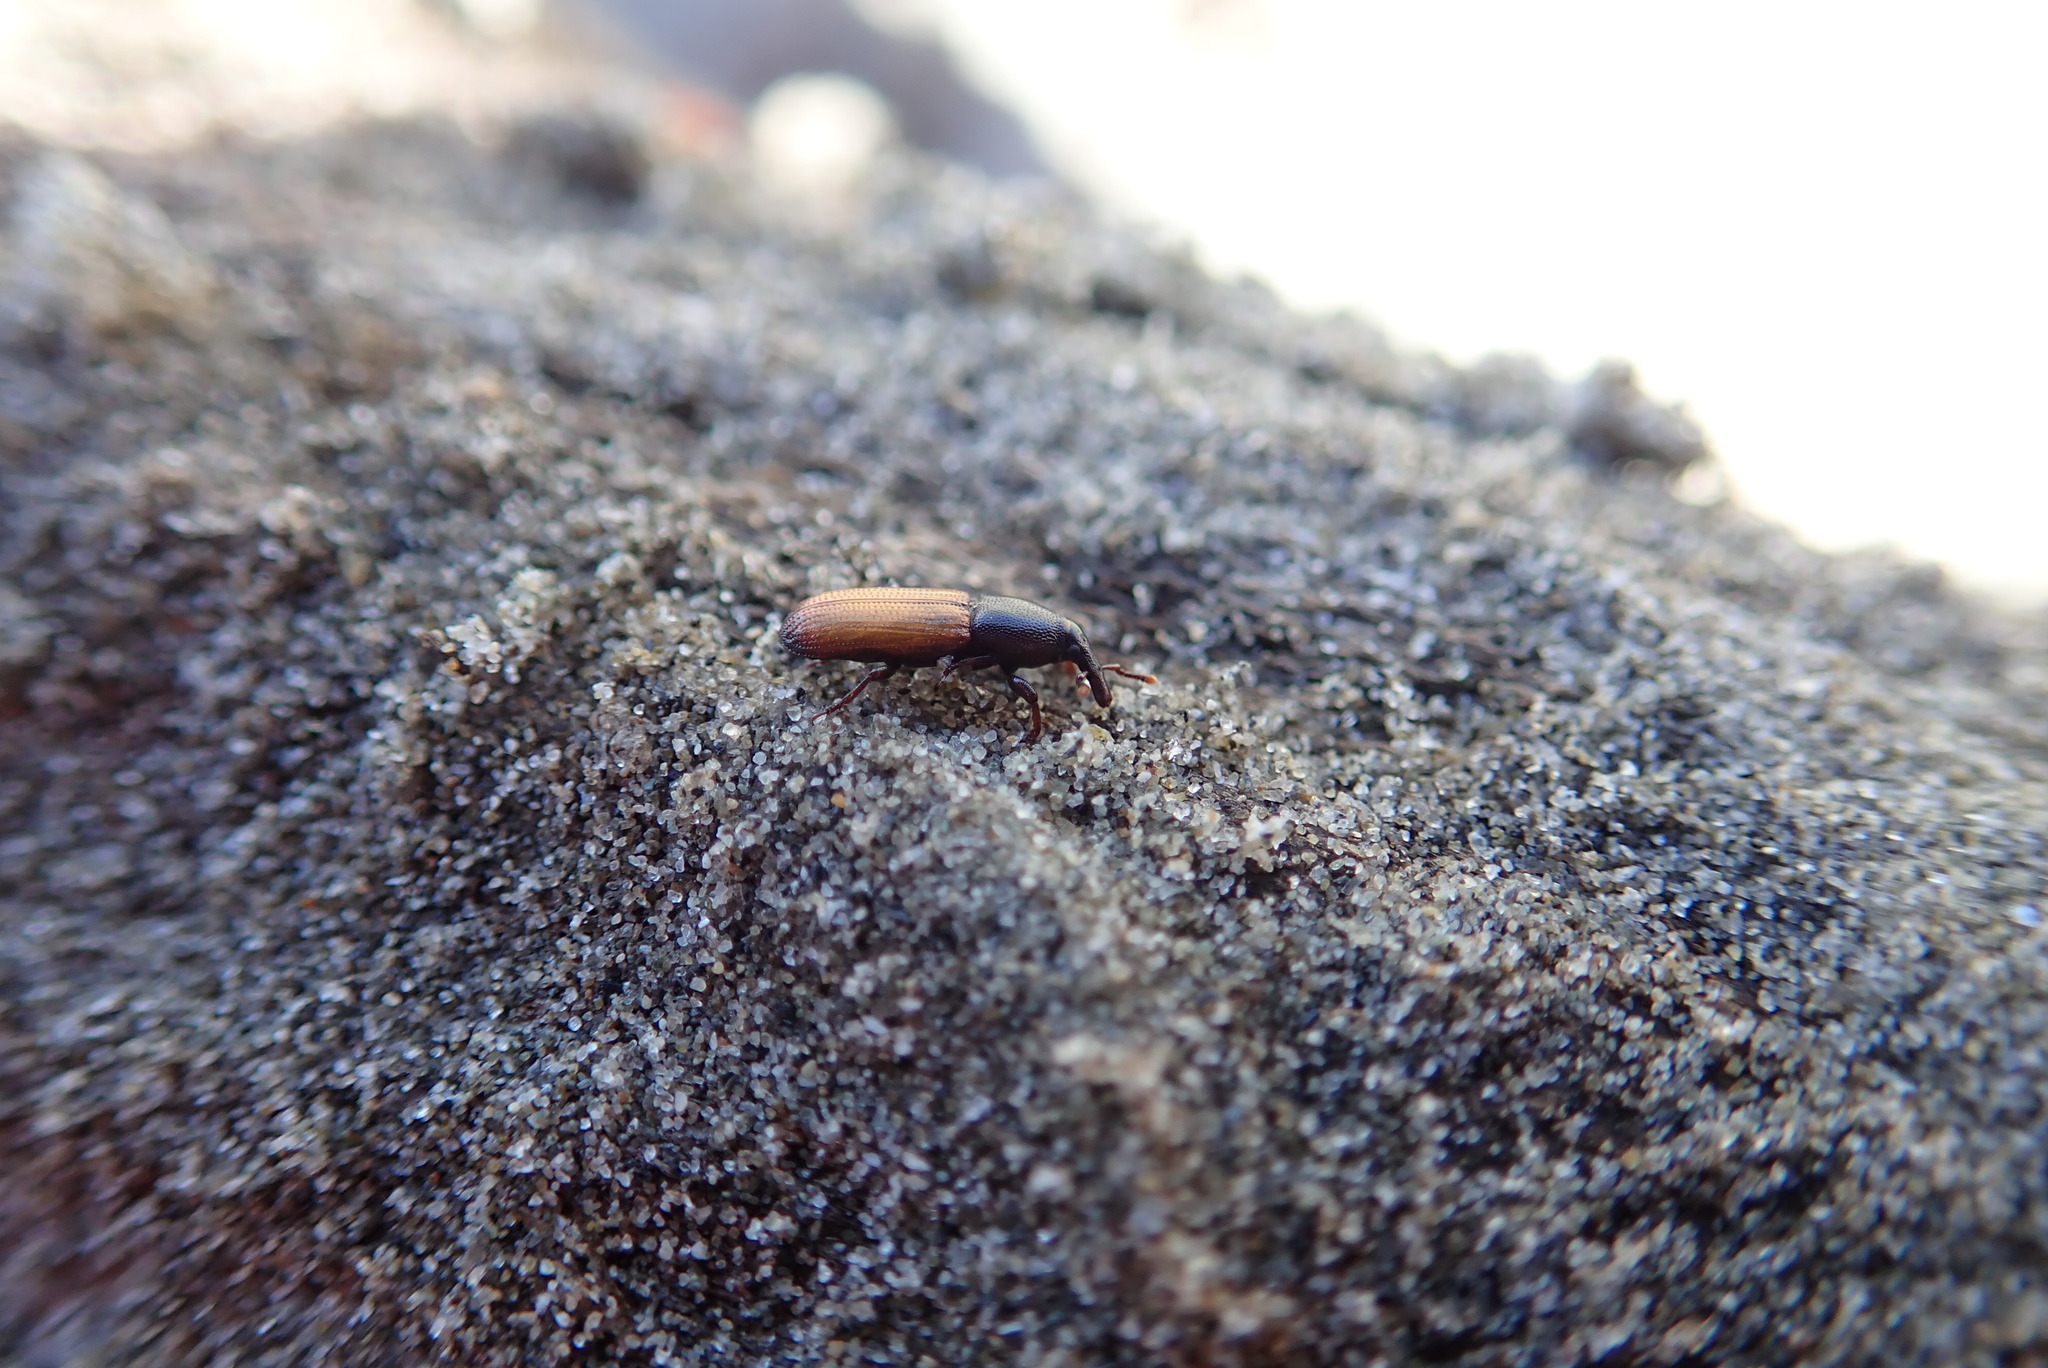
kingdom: Animalia
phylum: Arthropoda
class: Insecta
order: Coleoptera
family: Curculionidae
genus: Mesites
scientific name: Mesites pallidipennis
